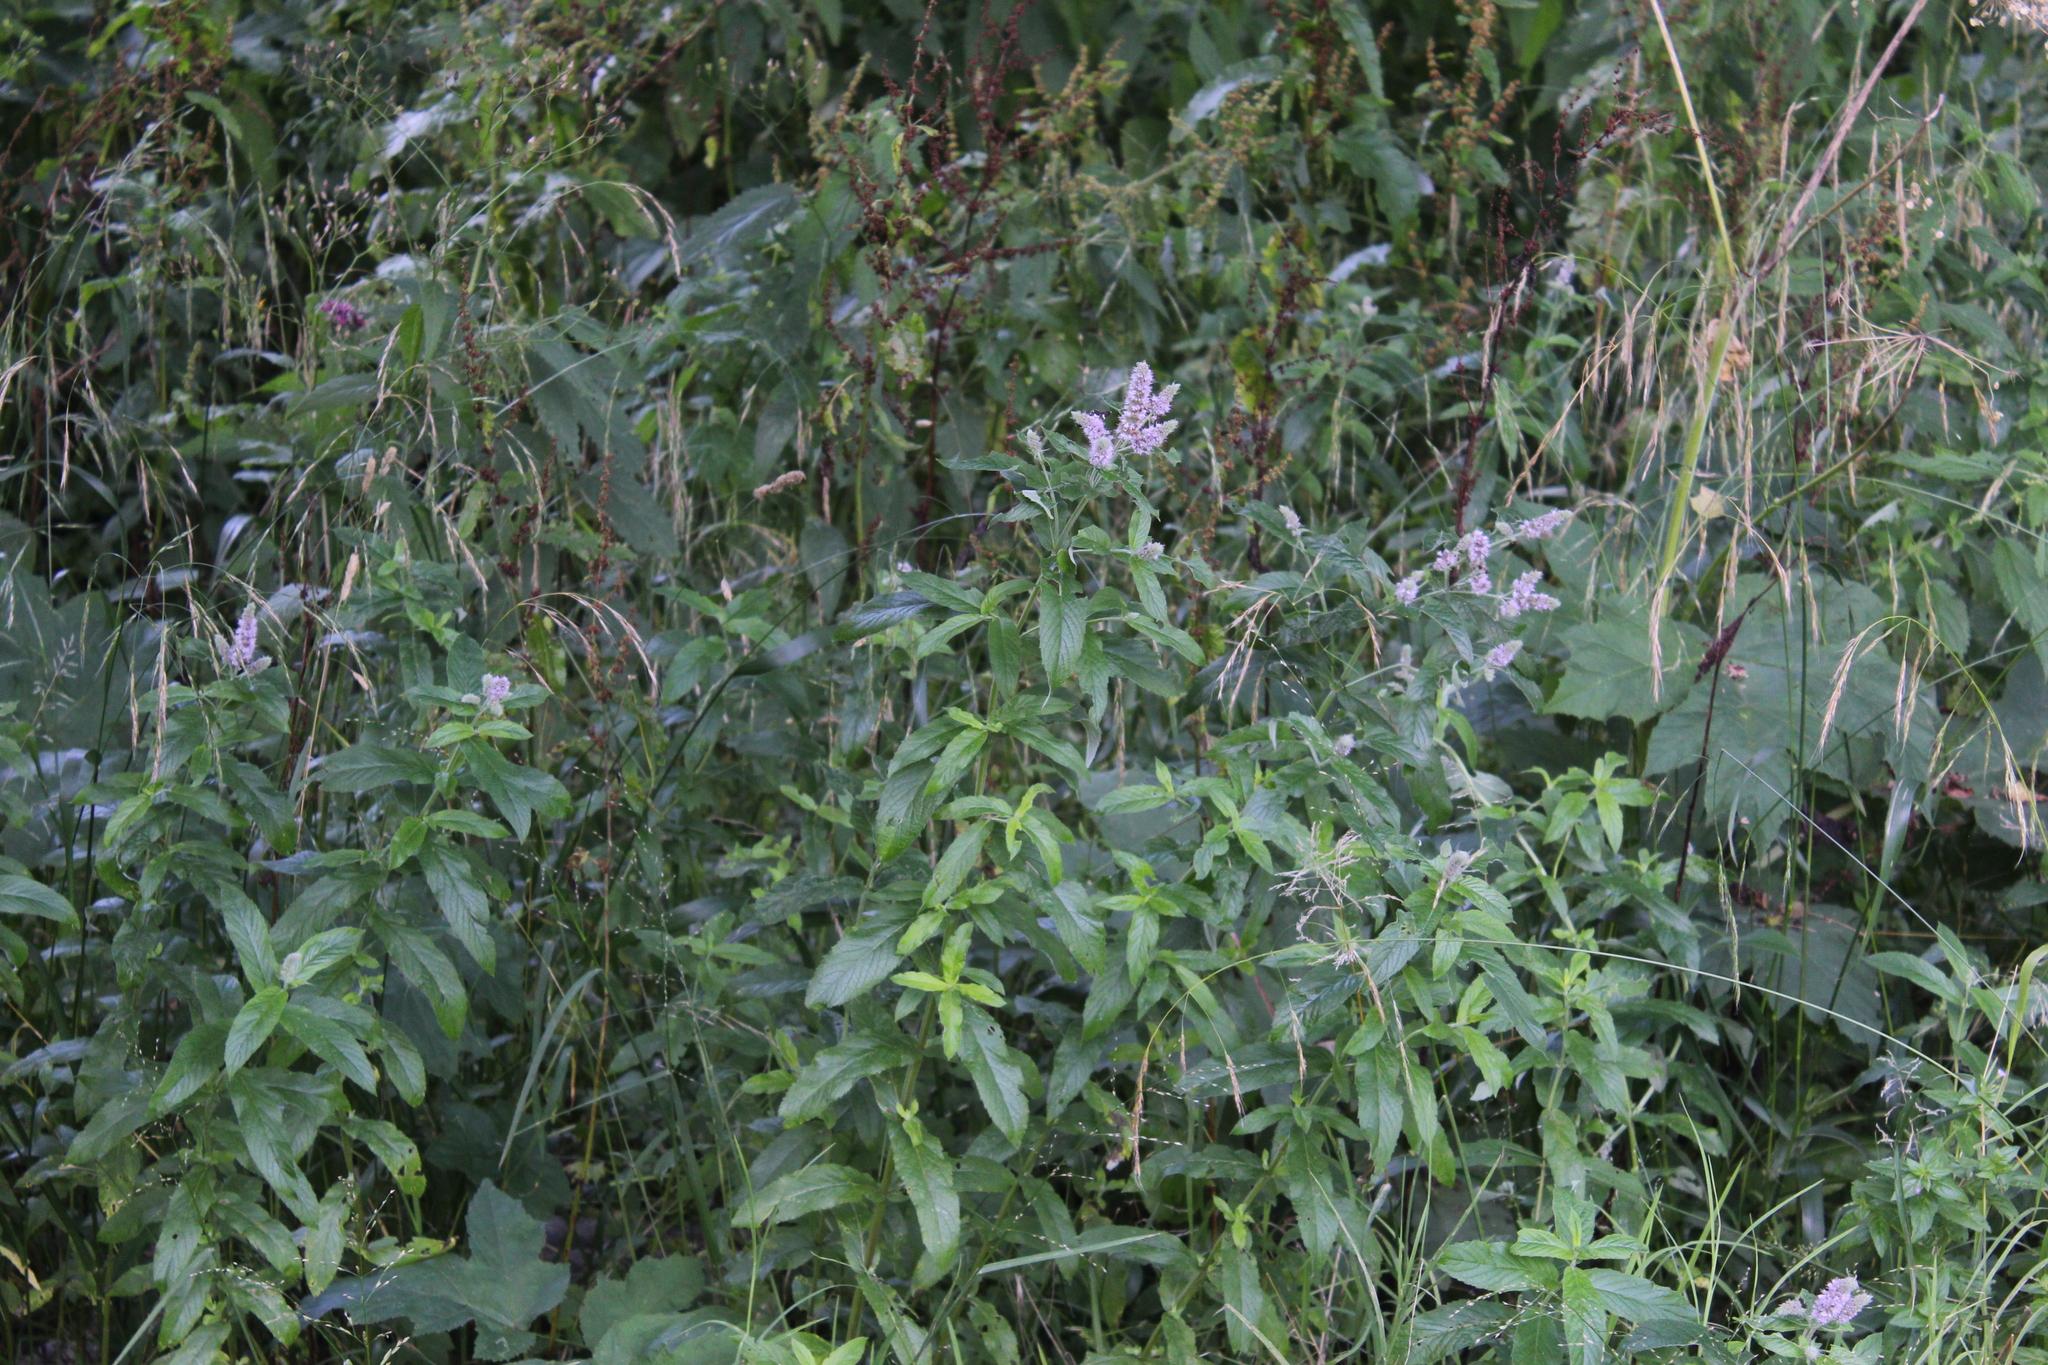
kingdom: Plantae
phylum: Tracheophyta
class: Magnoliopsida
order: Lamiales
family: Lamiaceae
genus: Mentha
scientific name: Mentha longifolia
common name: Horse mint
